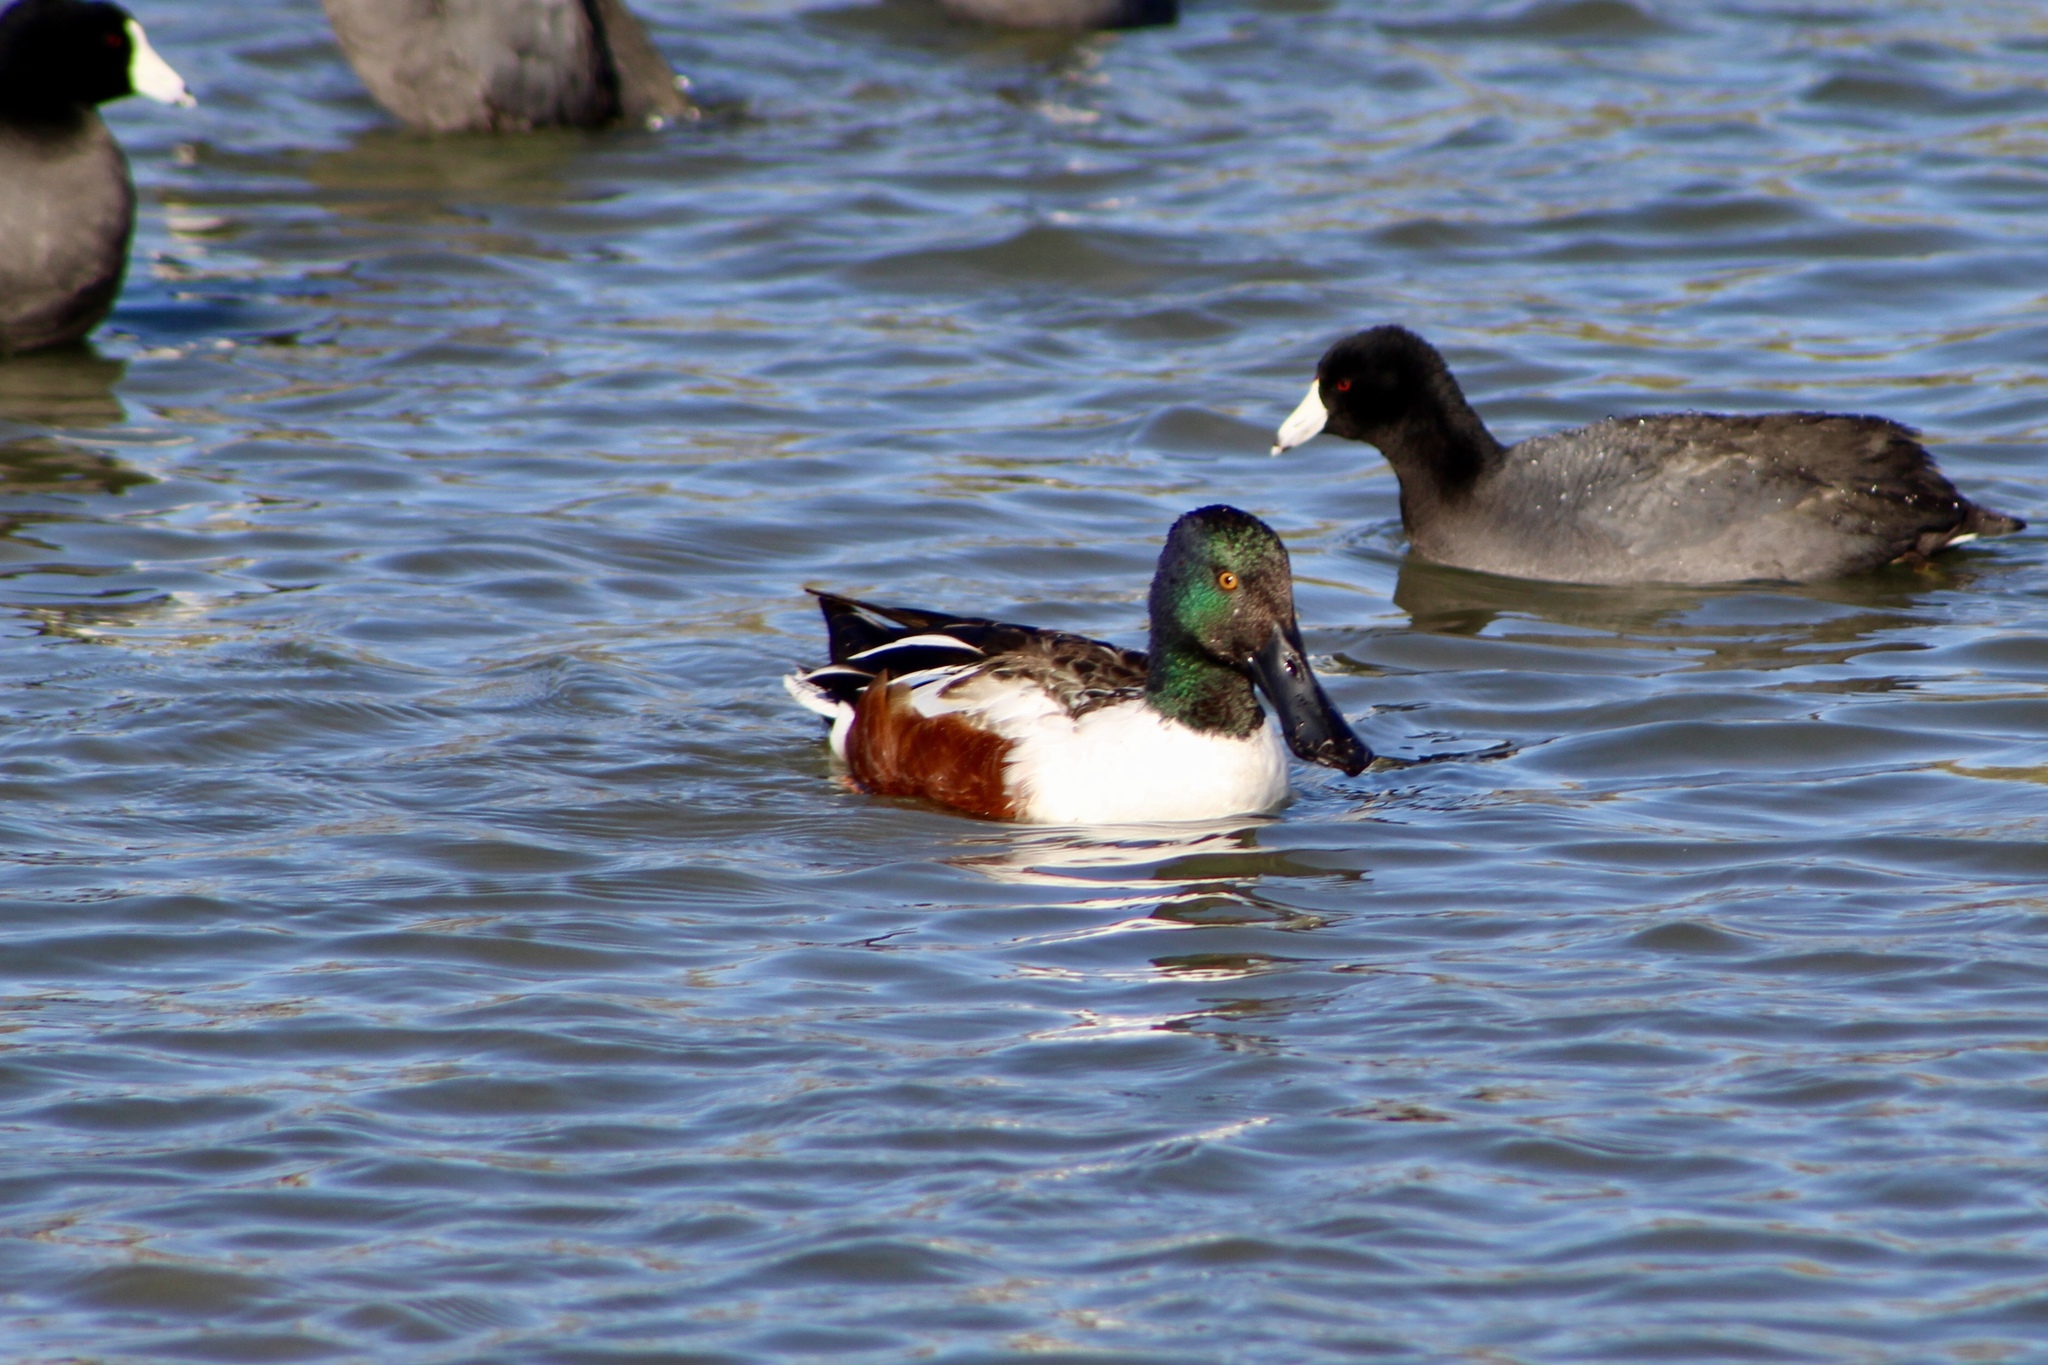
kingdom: Animalia
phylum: Chordata
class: Aves
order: Anseriformes
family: Anatidae
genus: Spatula
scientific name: Spatula clypeata
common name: Northern shoveler
